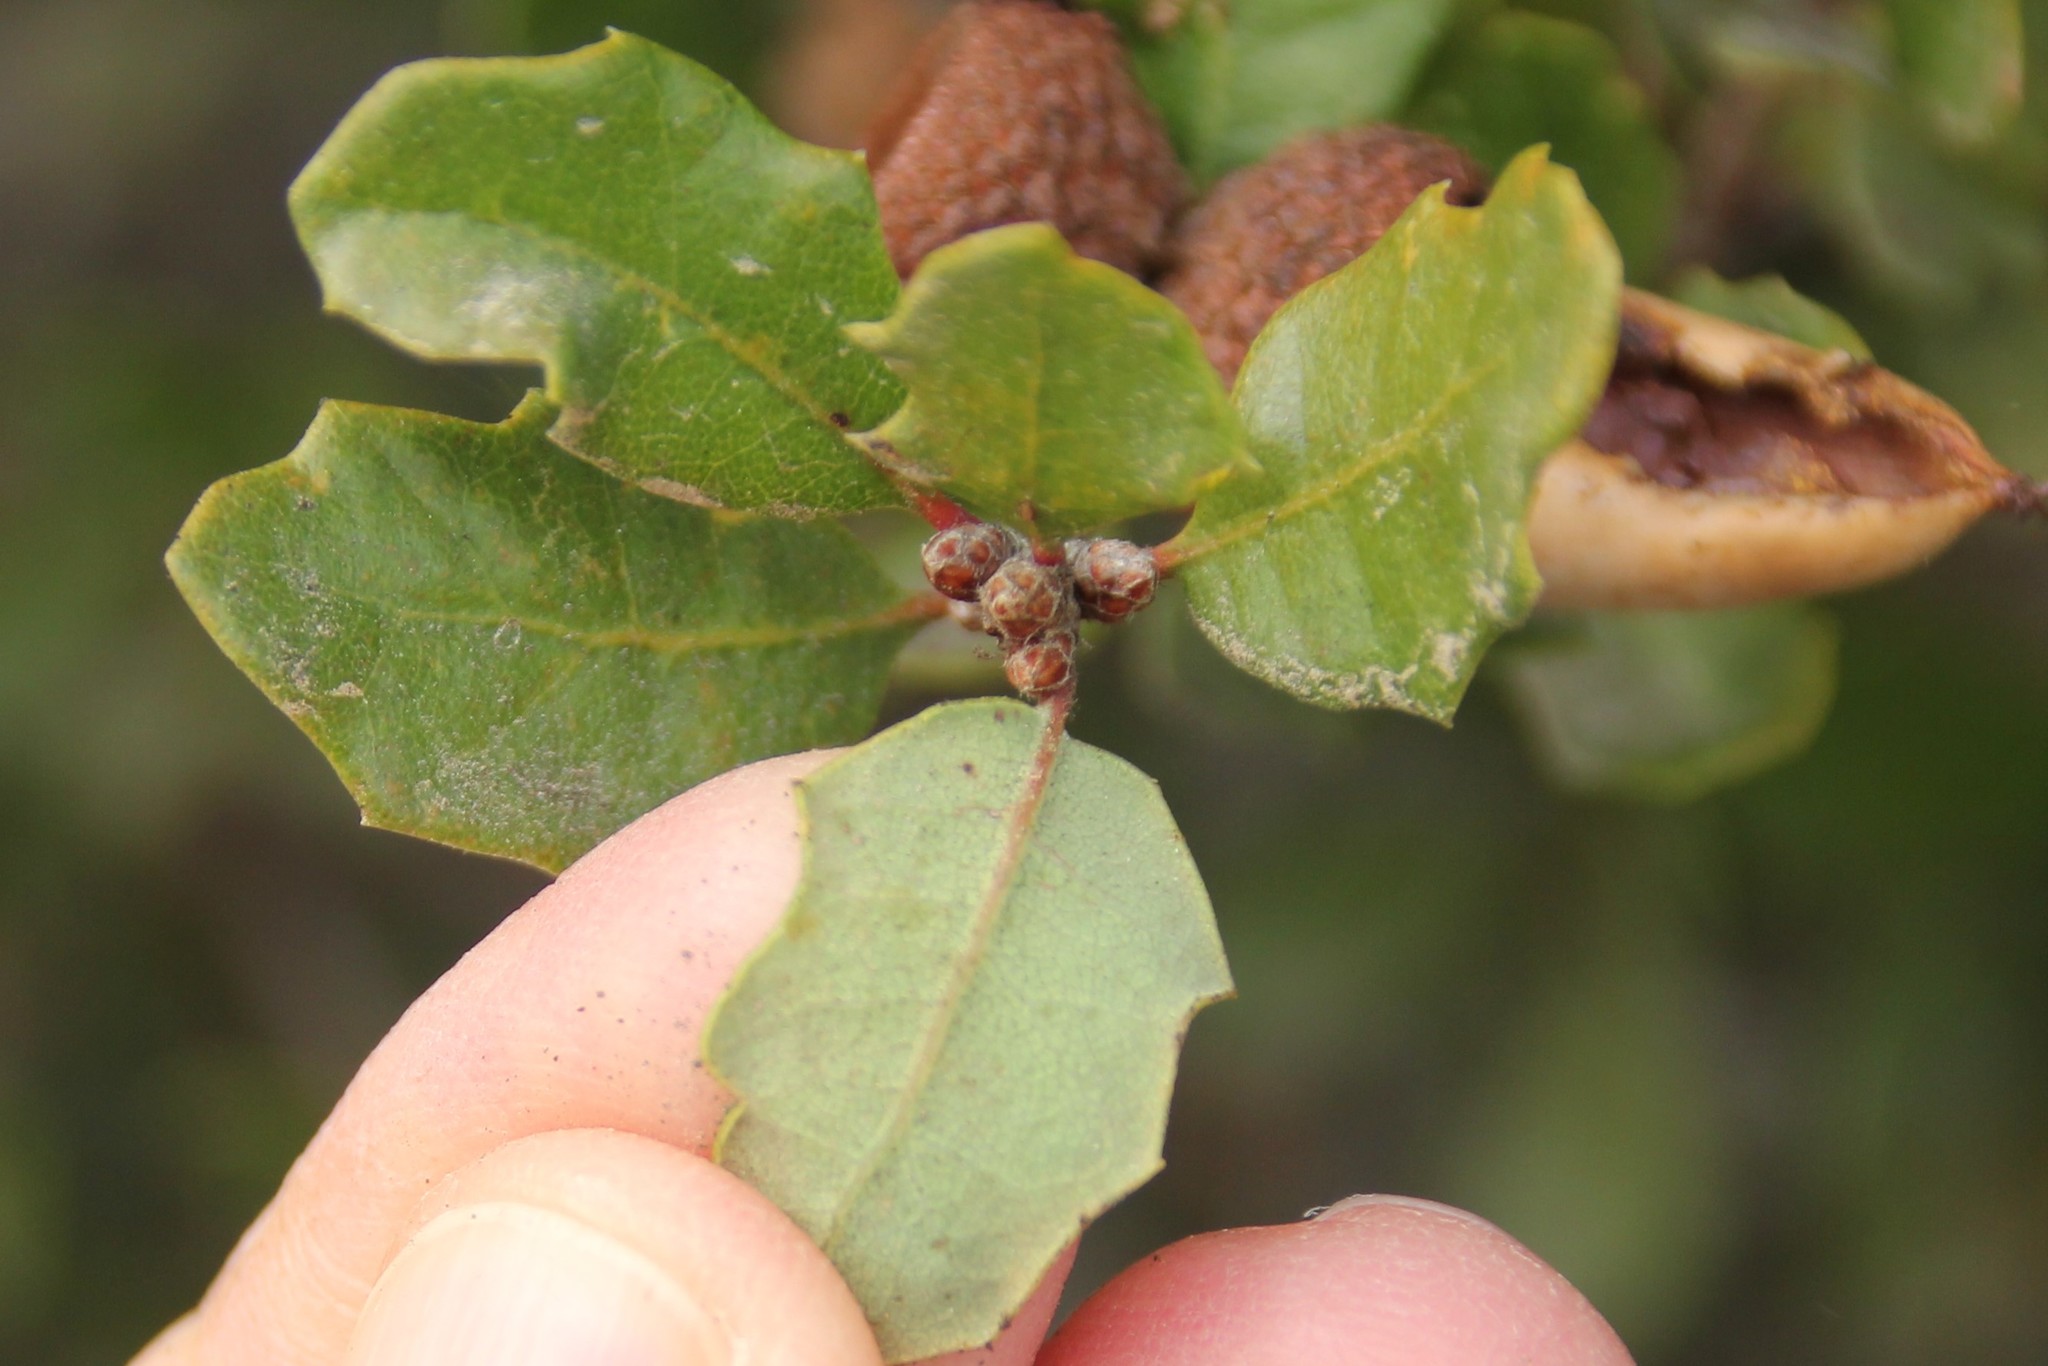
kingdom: Plantae
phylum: Tracheophyta
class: Magnoliopsida
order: Fagales
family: Fagaceae
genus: Quercus
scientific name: Quercus berberidifolia
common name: California scrub oak
